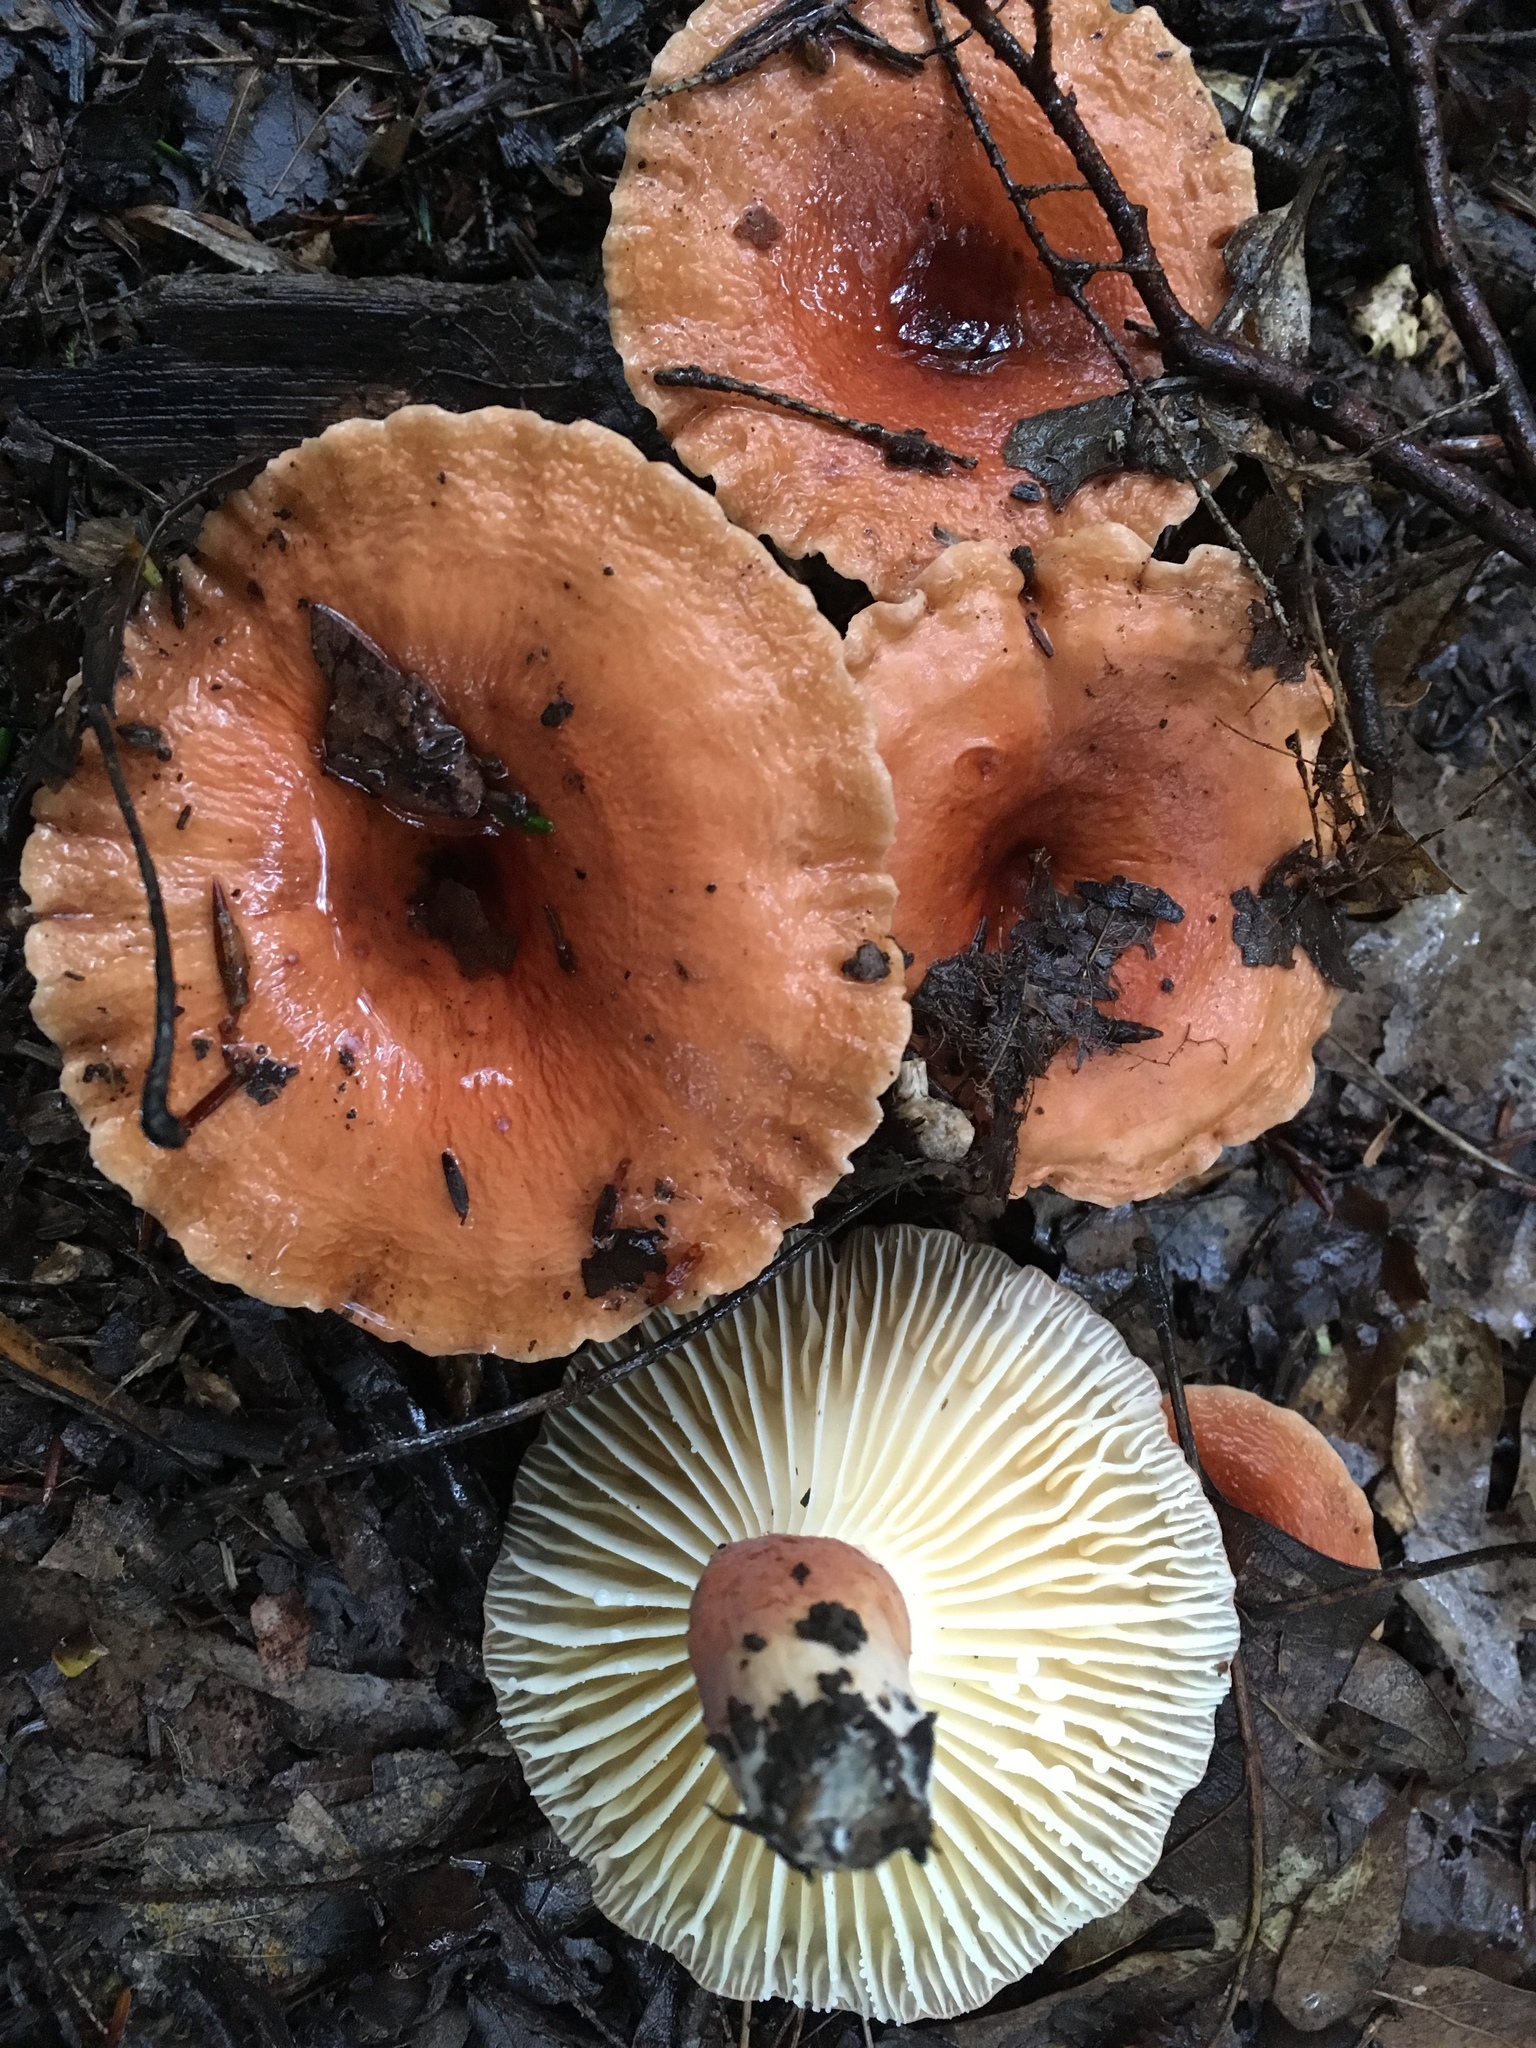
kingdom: Fungi
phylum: Basidiomycota
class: Agaricomycetes
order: Russulales
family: Russulaceae
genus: Lactarius
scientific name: Lactarius hygrophoroides
